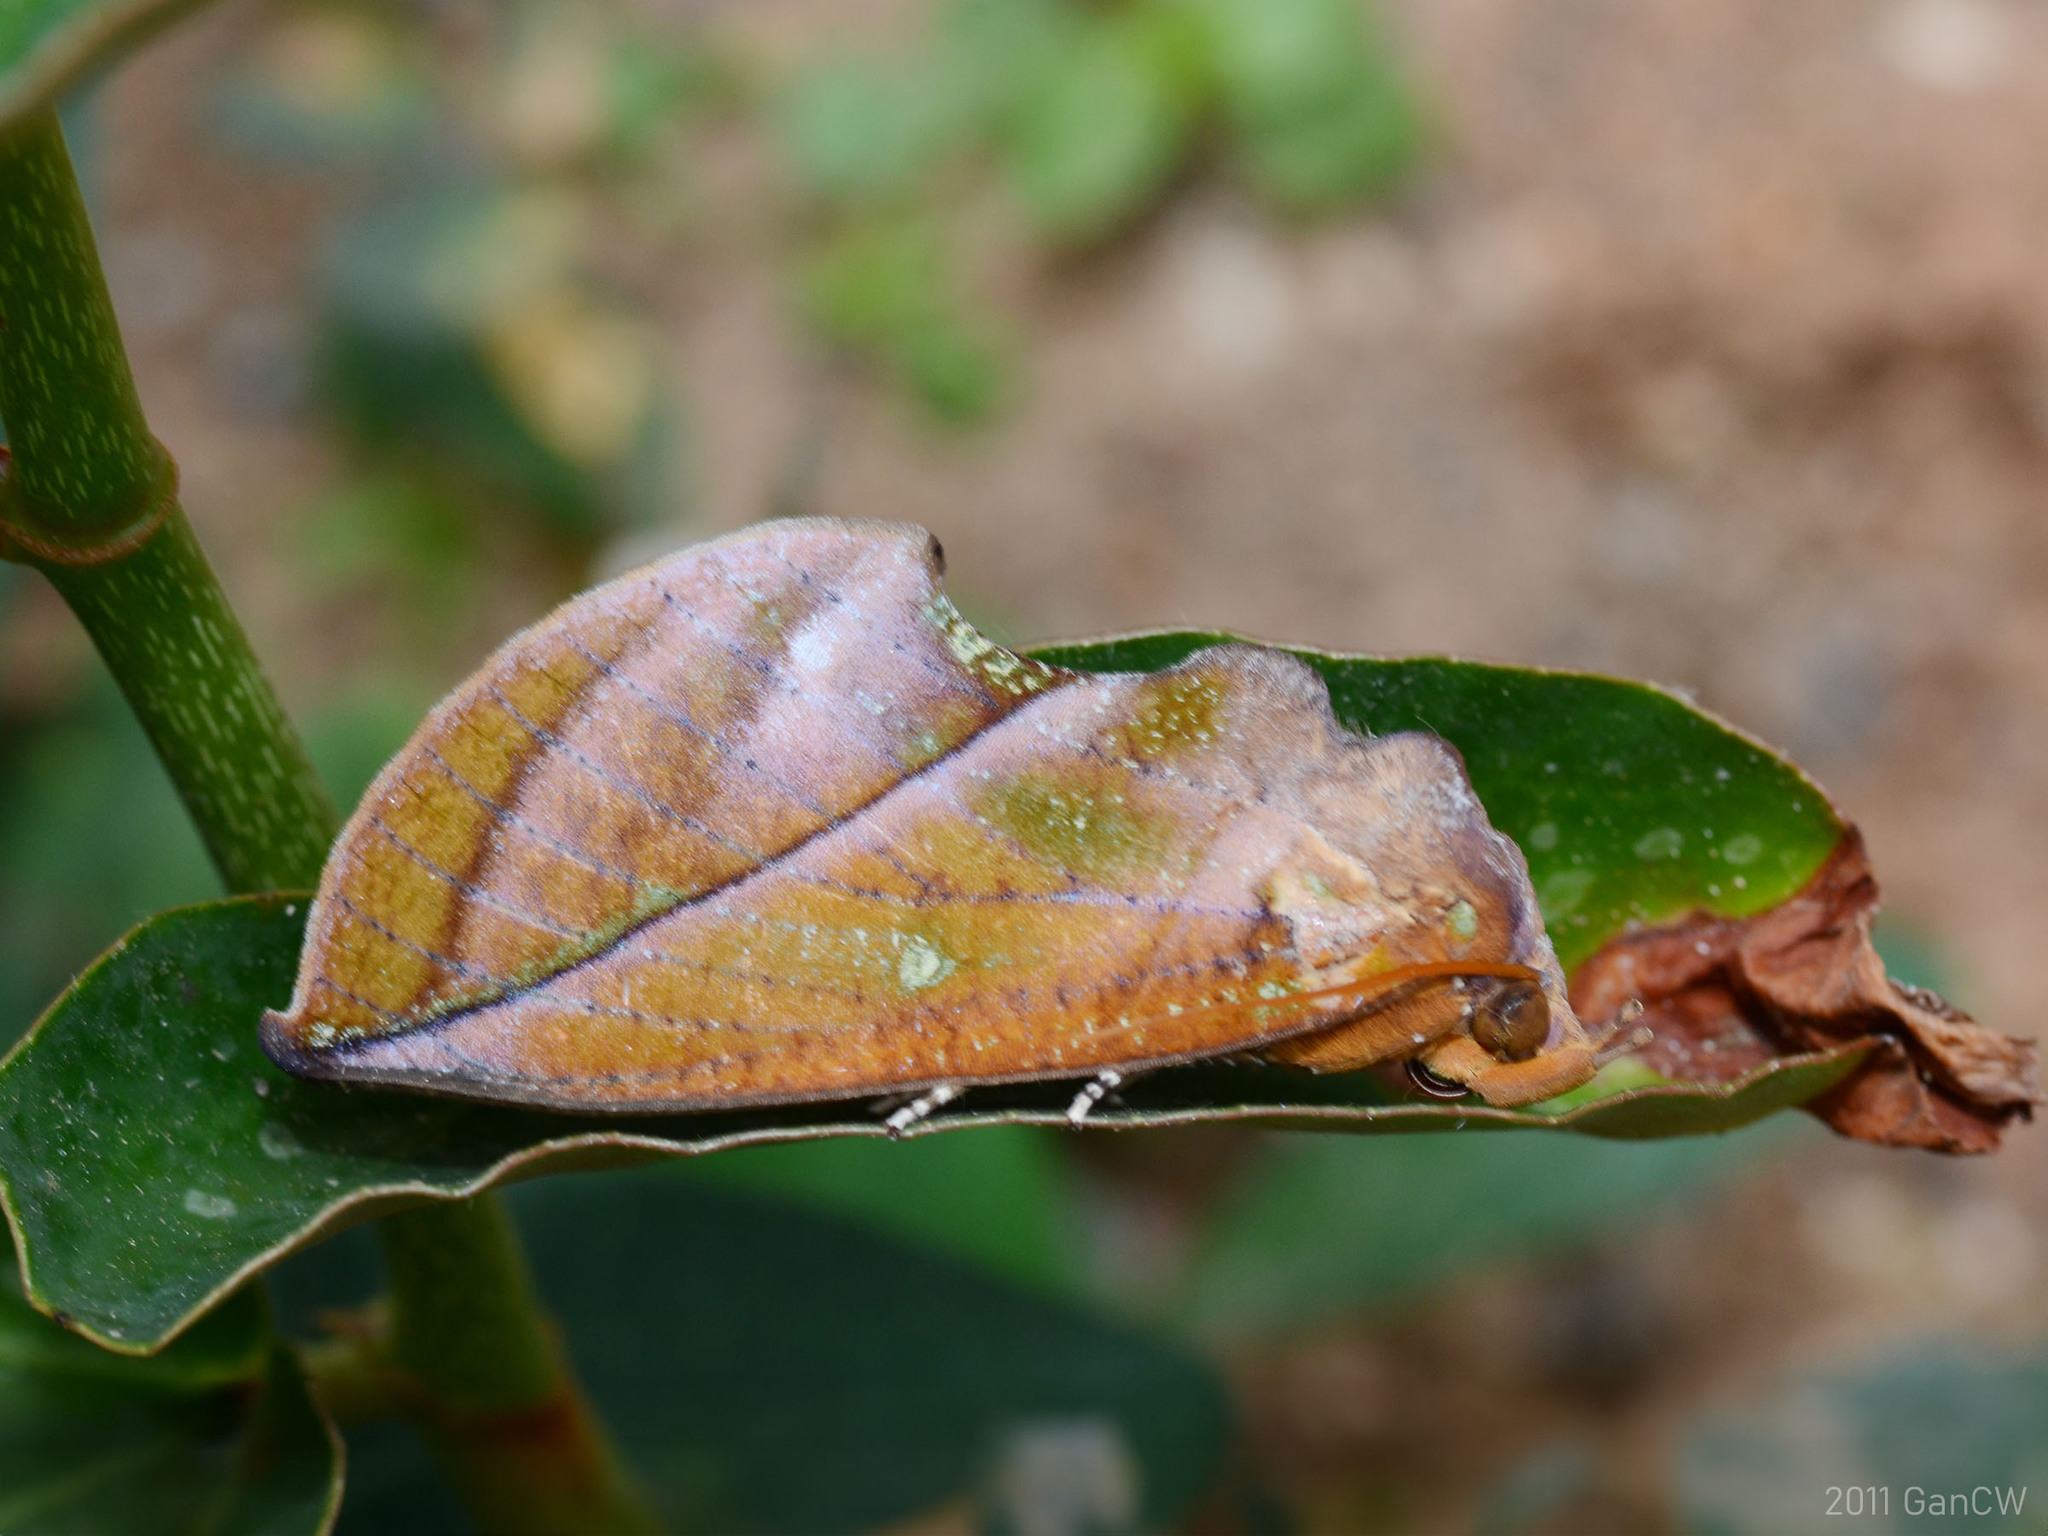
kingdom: Animalia
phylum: Arthropoda
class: Insecta
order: Lepidoptera
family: Erebidae
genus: Eudocima
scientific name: Eudocima aurantia
